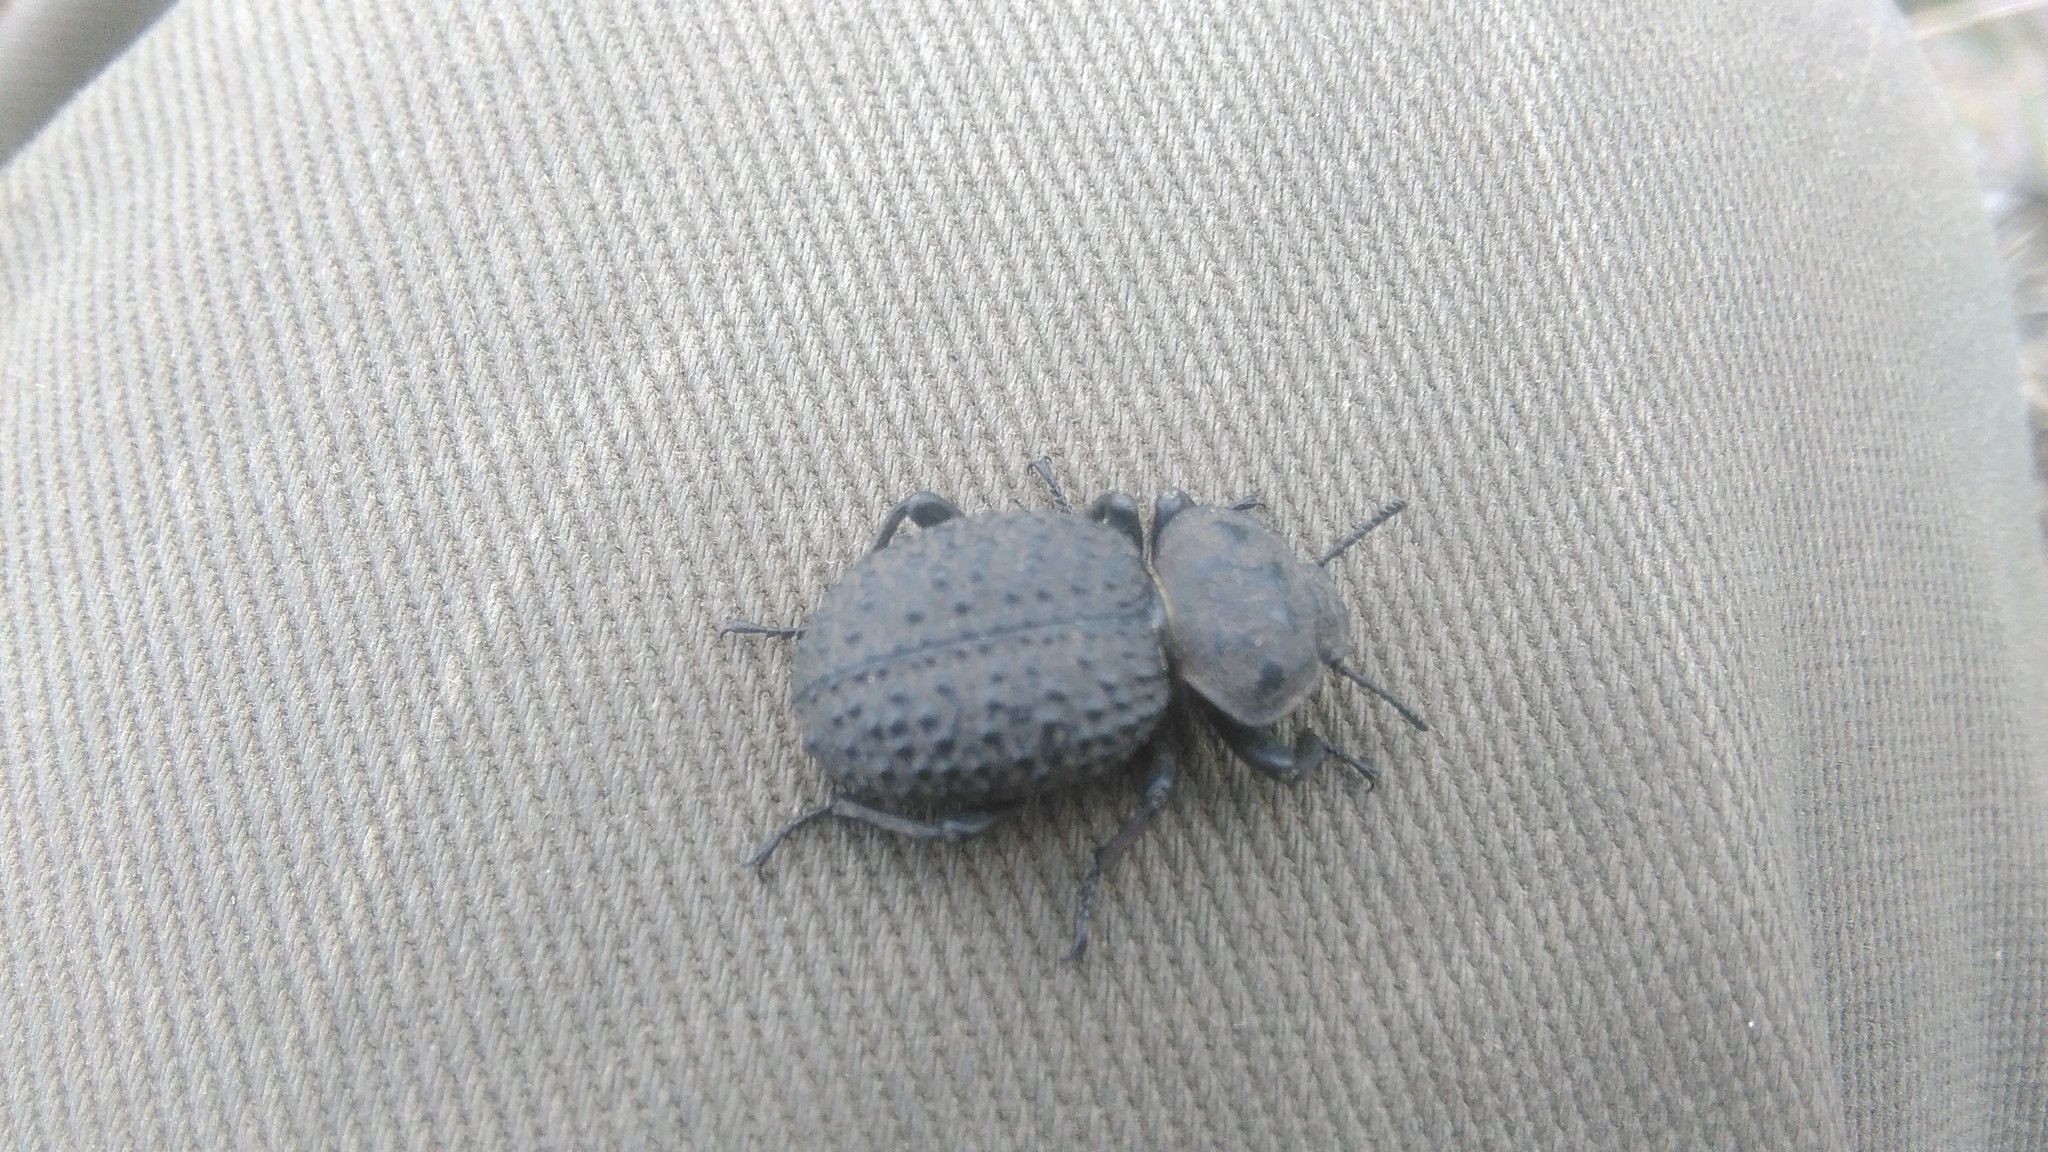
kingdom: Animalia
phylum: Arthropoda
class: Insecta
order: Coleoptera
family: Tenebrionidae
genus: Scotobius
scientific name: Scotobius pilularius
